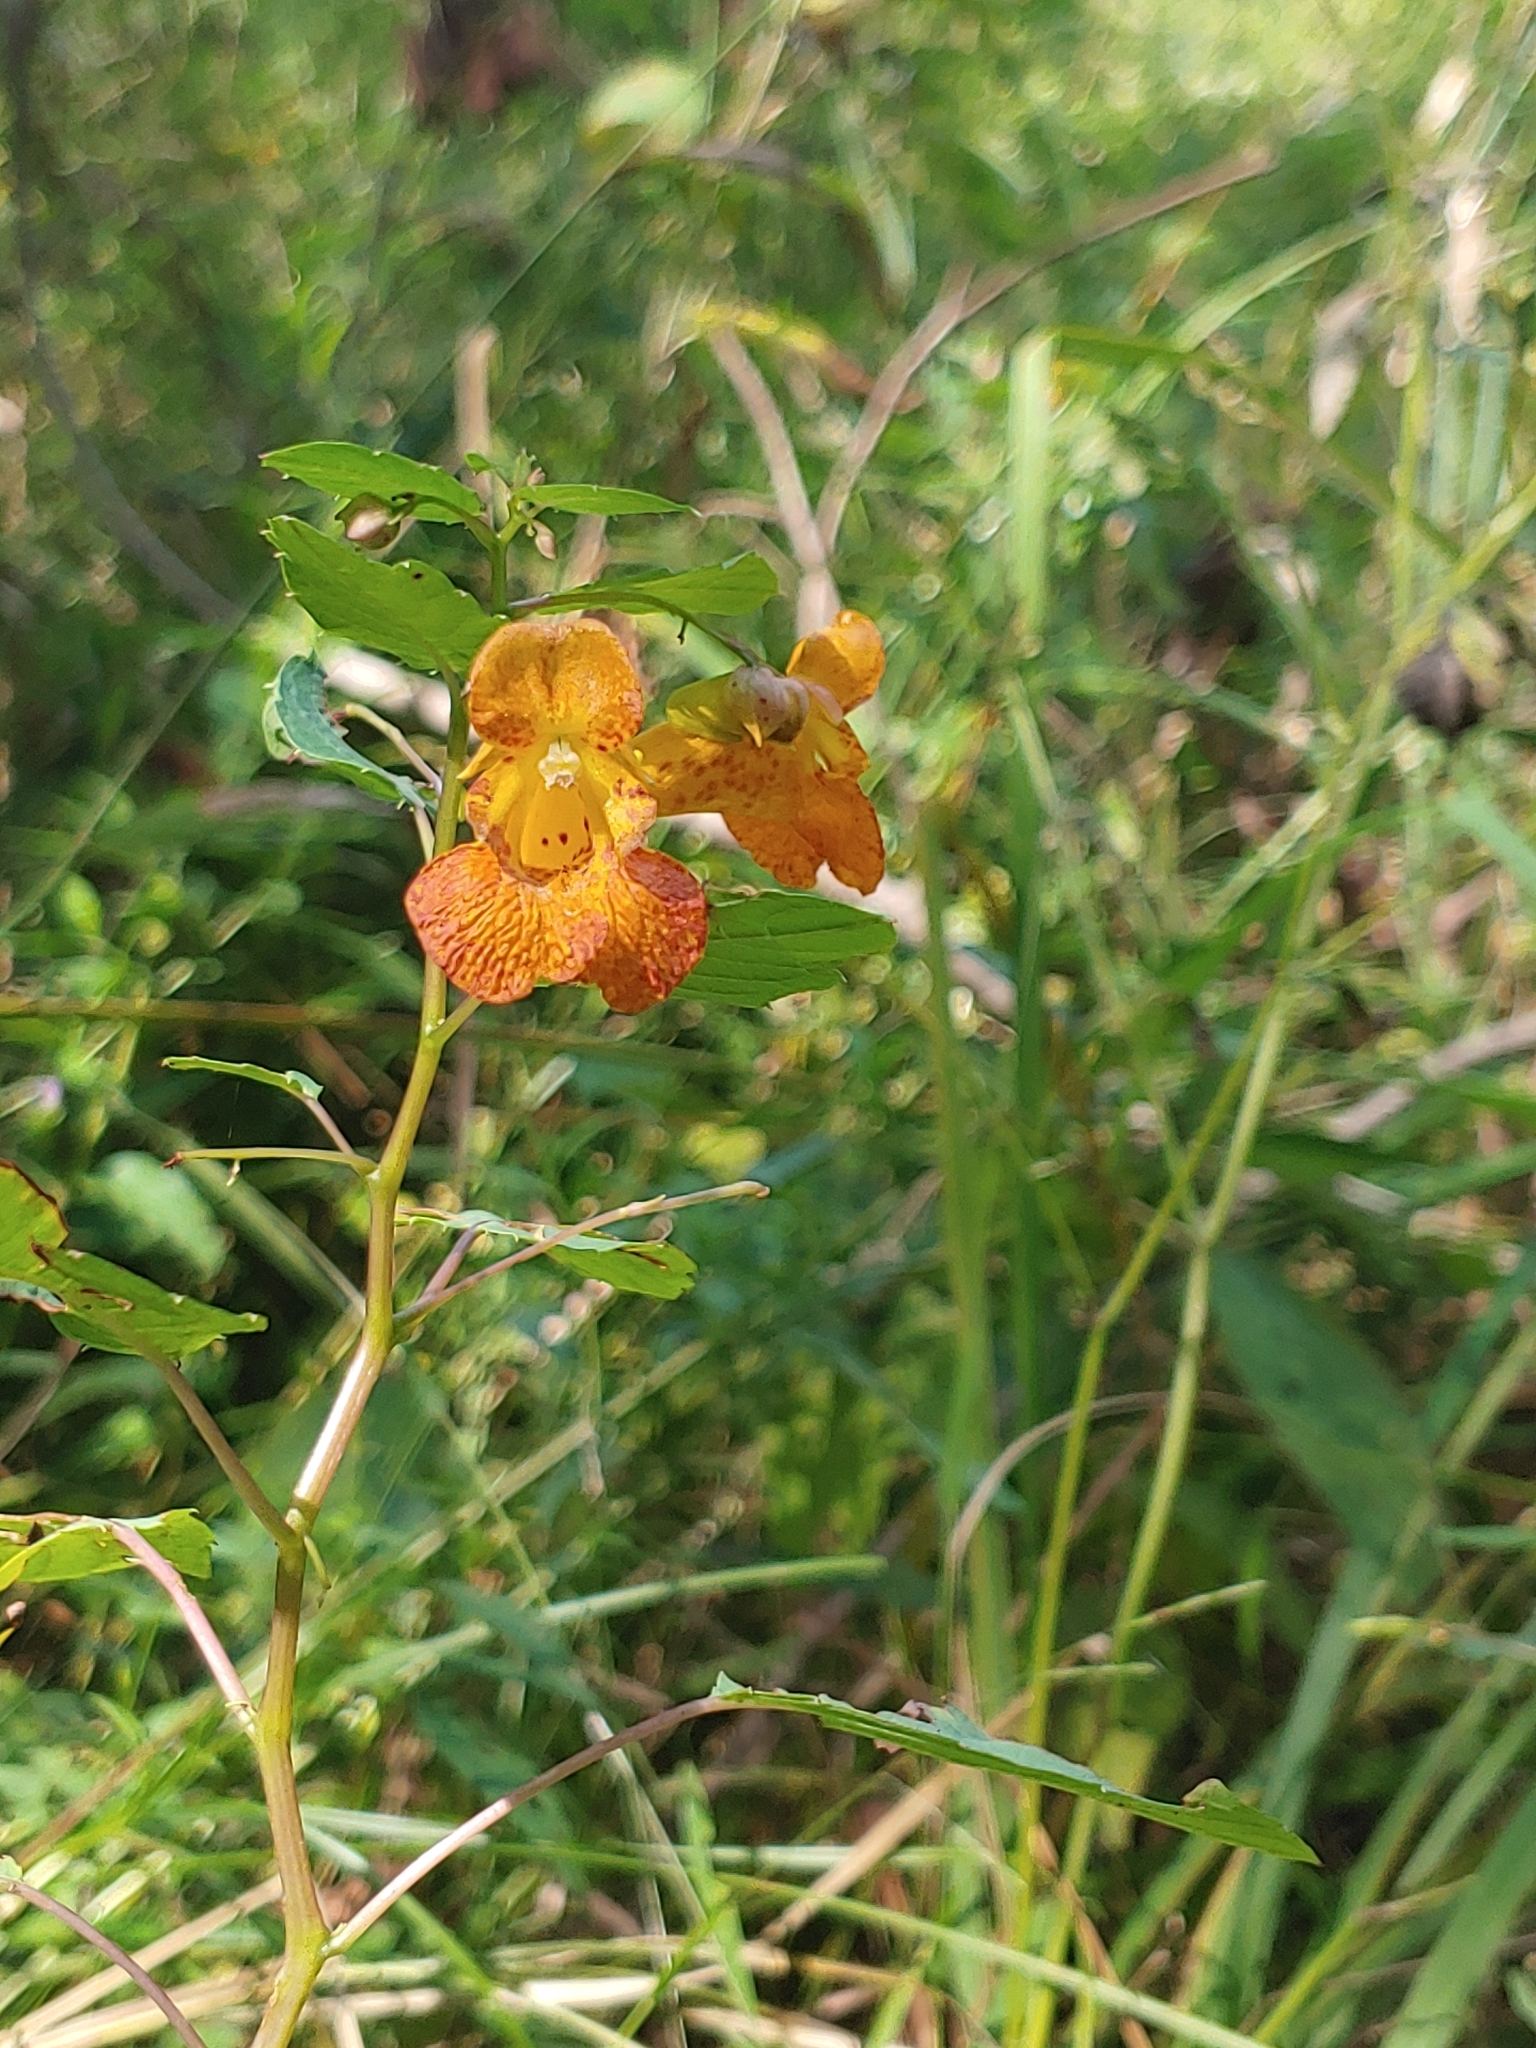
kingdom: Plantae
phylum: Tracheophyta
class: Magnoliopsida
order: Ericales
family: Balsaminaceae
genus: Impatiens
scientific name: Impatiens capensis
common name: Orange balsam
